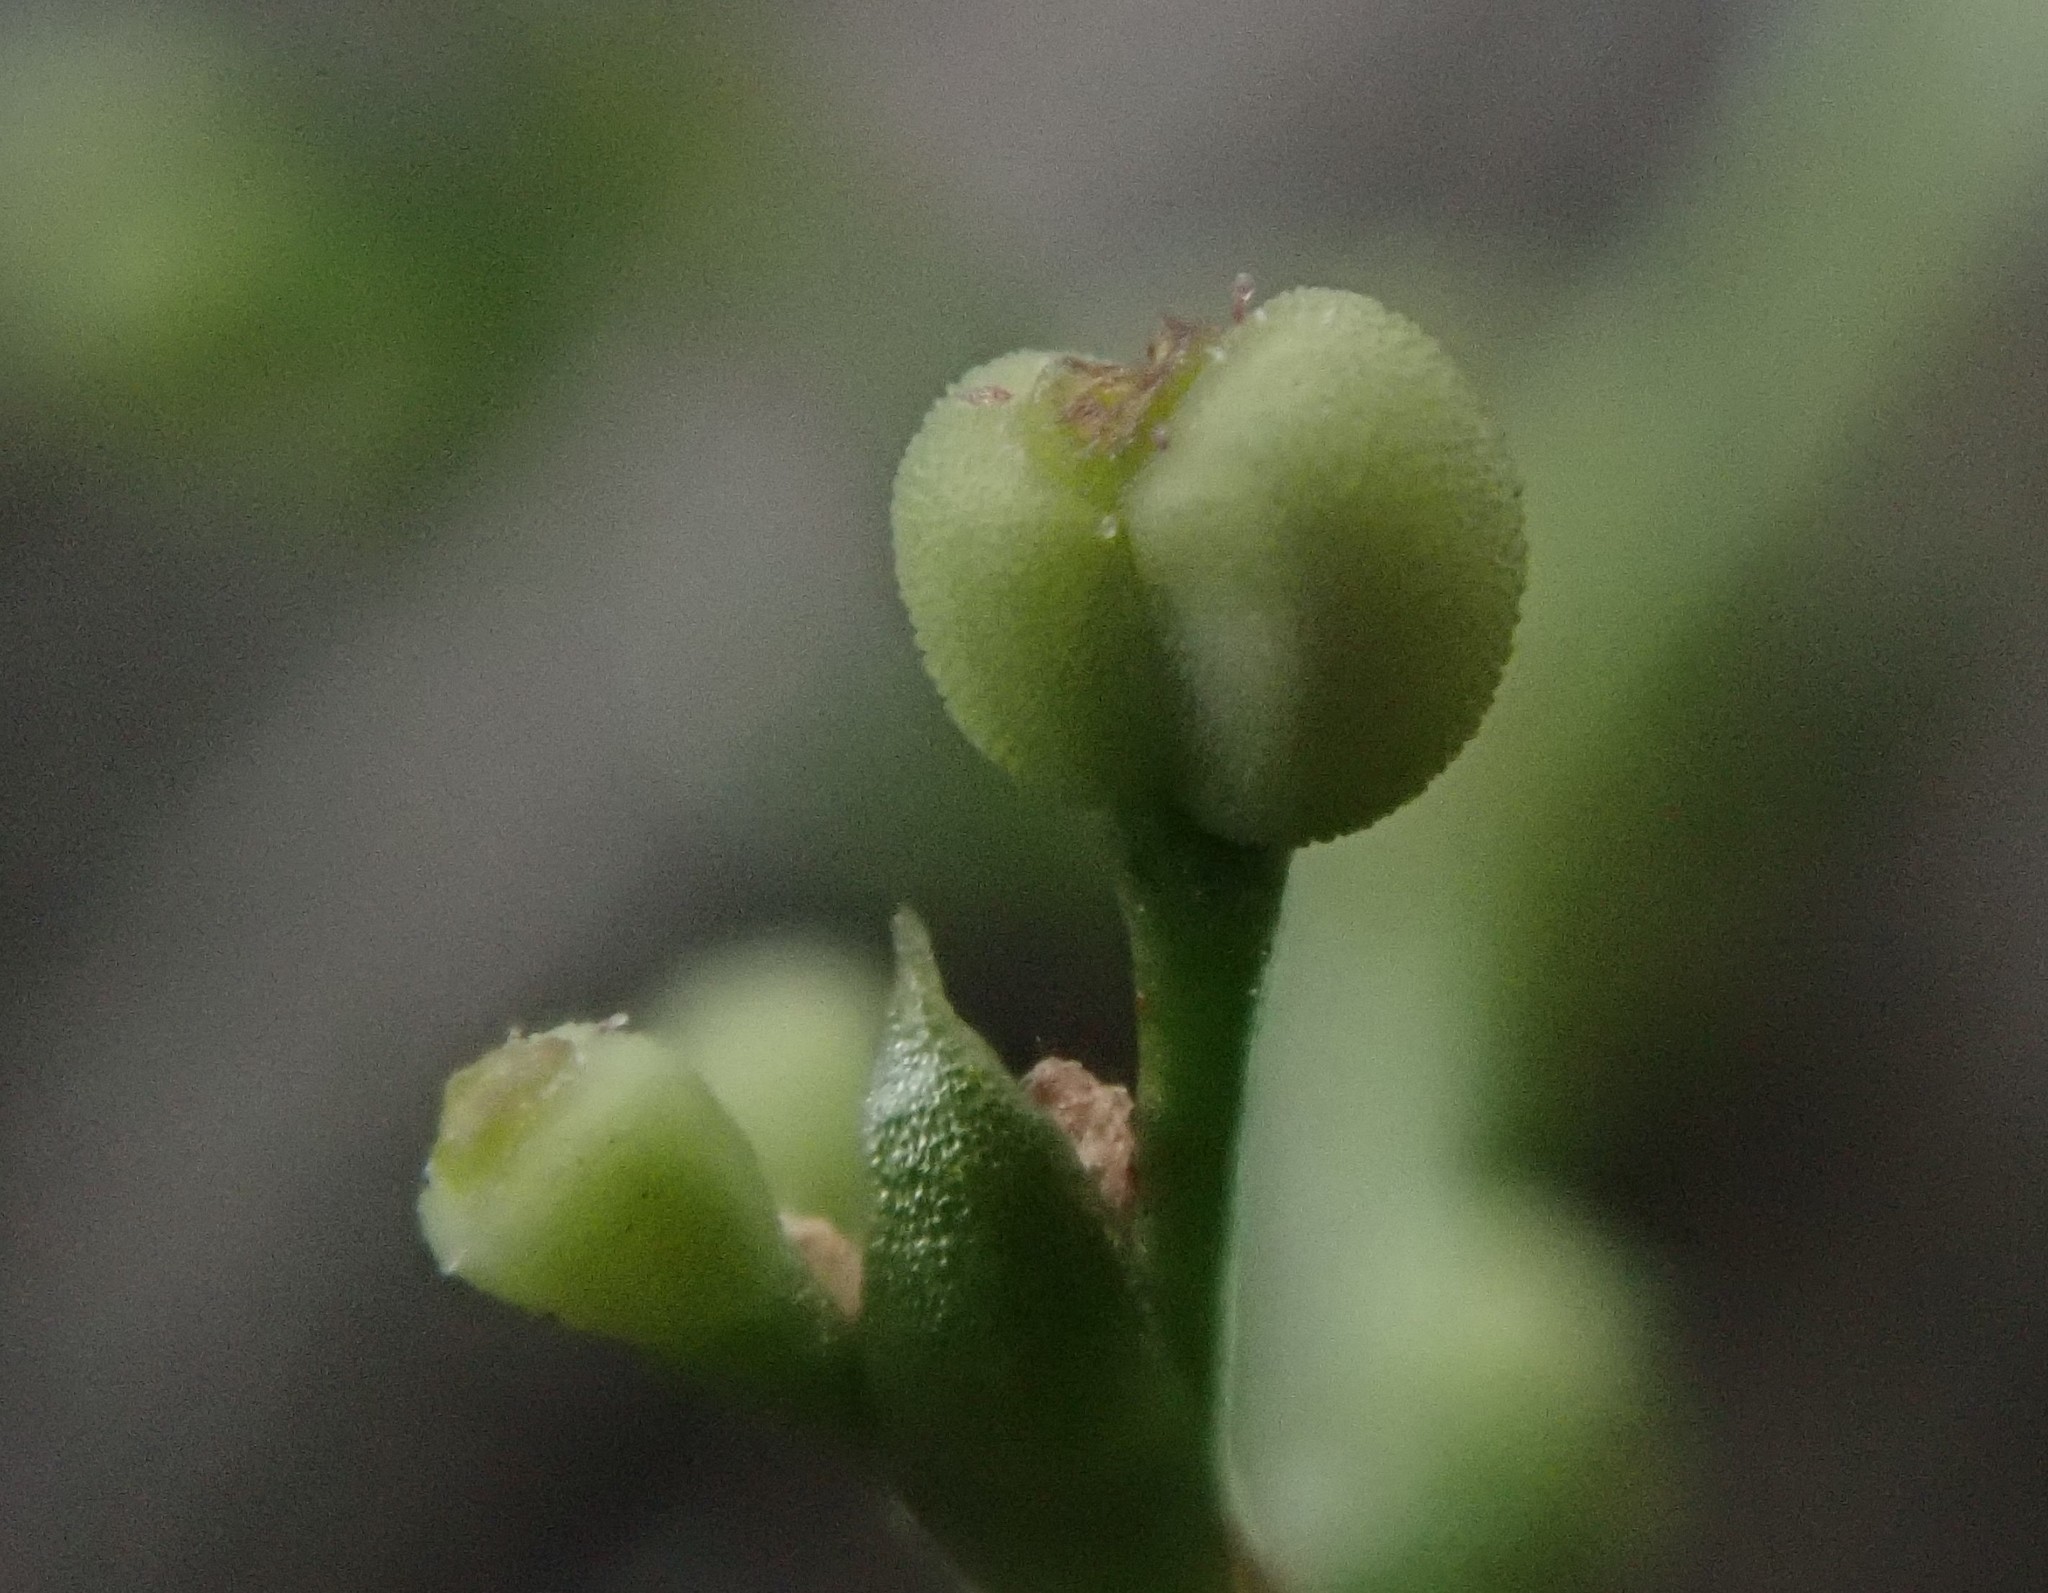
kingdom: Plantae
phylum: Tracheophyta
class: Magnoliopsida
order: Gentianales
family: Rubiaceae
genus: Galium
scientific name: Galium saxatile
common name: Heath bedstraw
